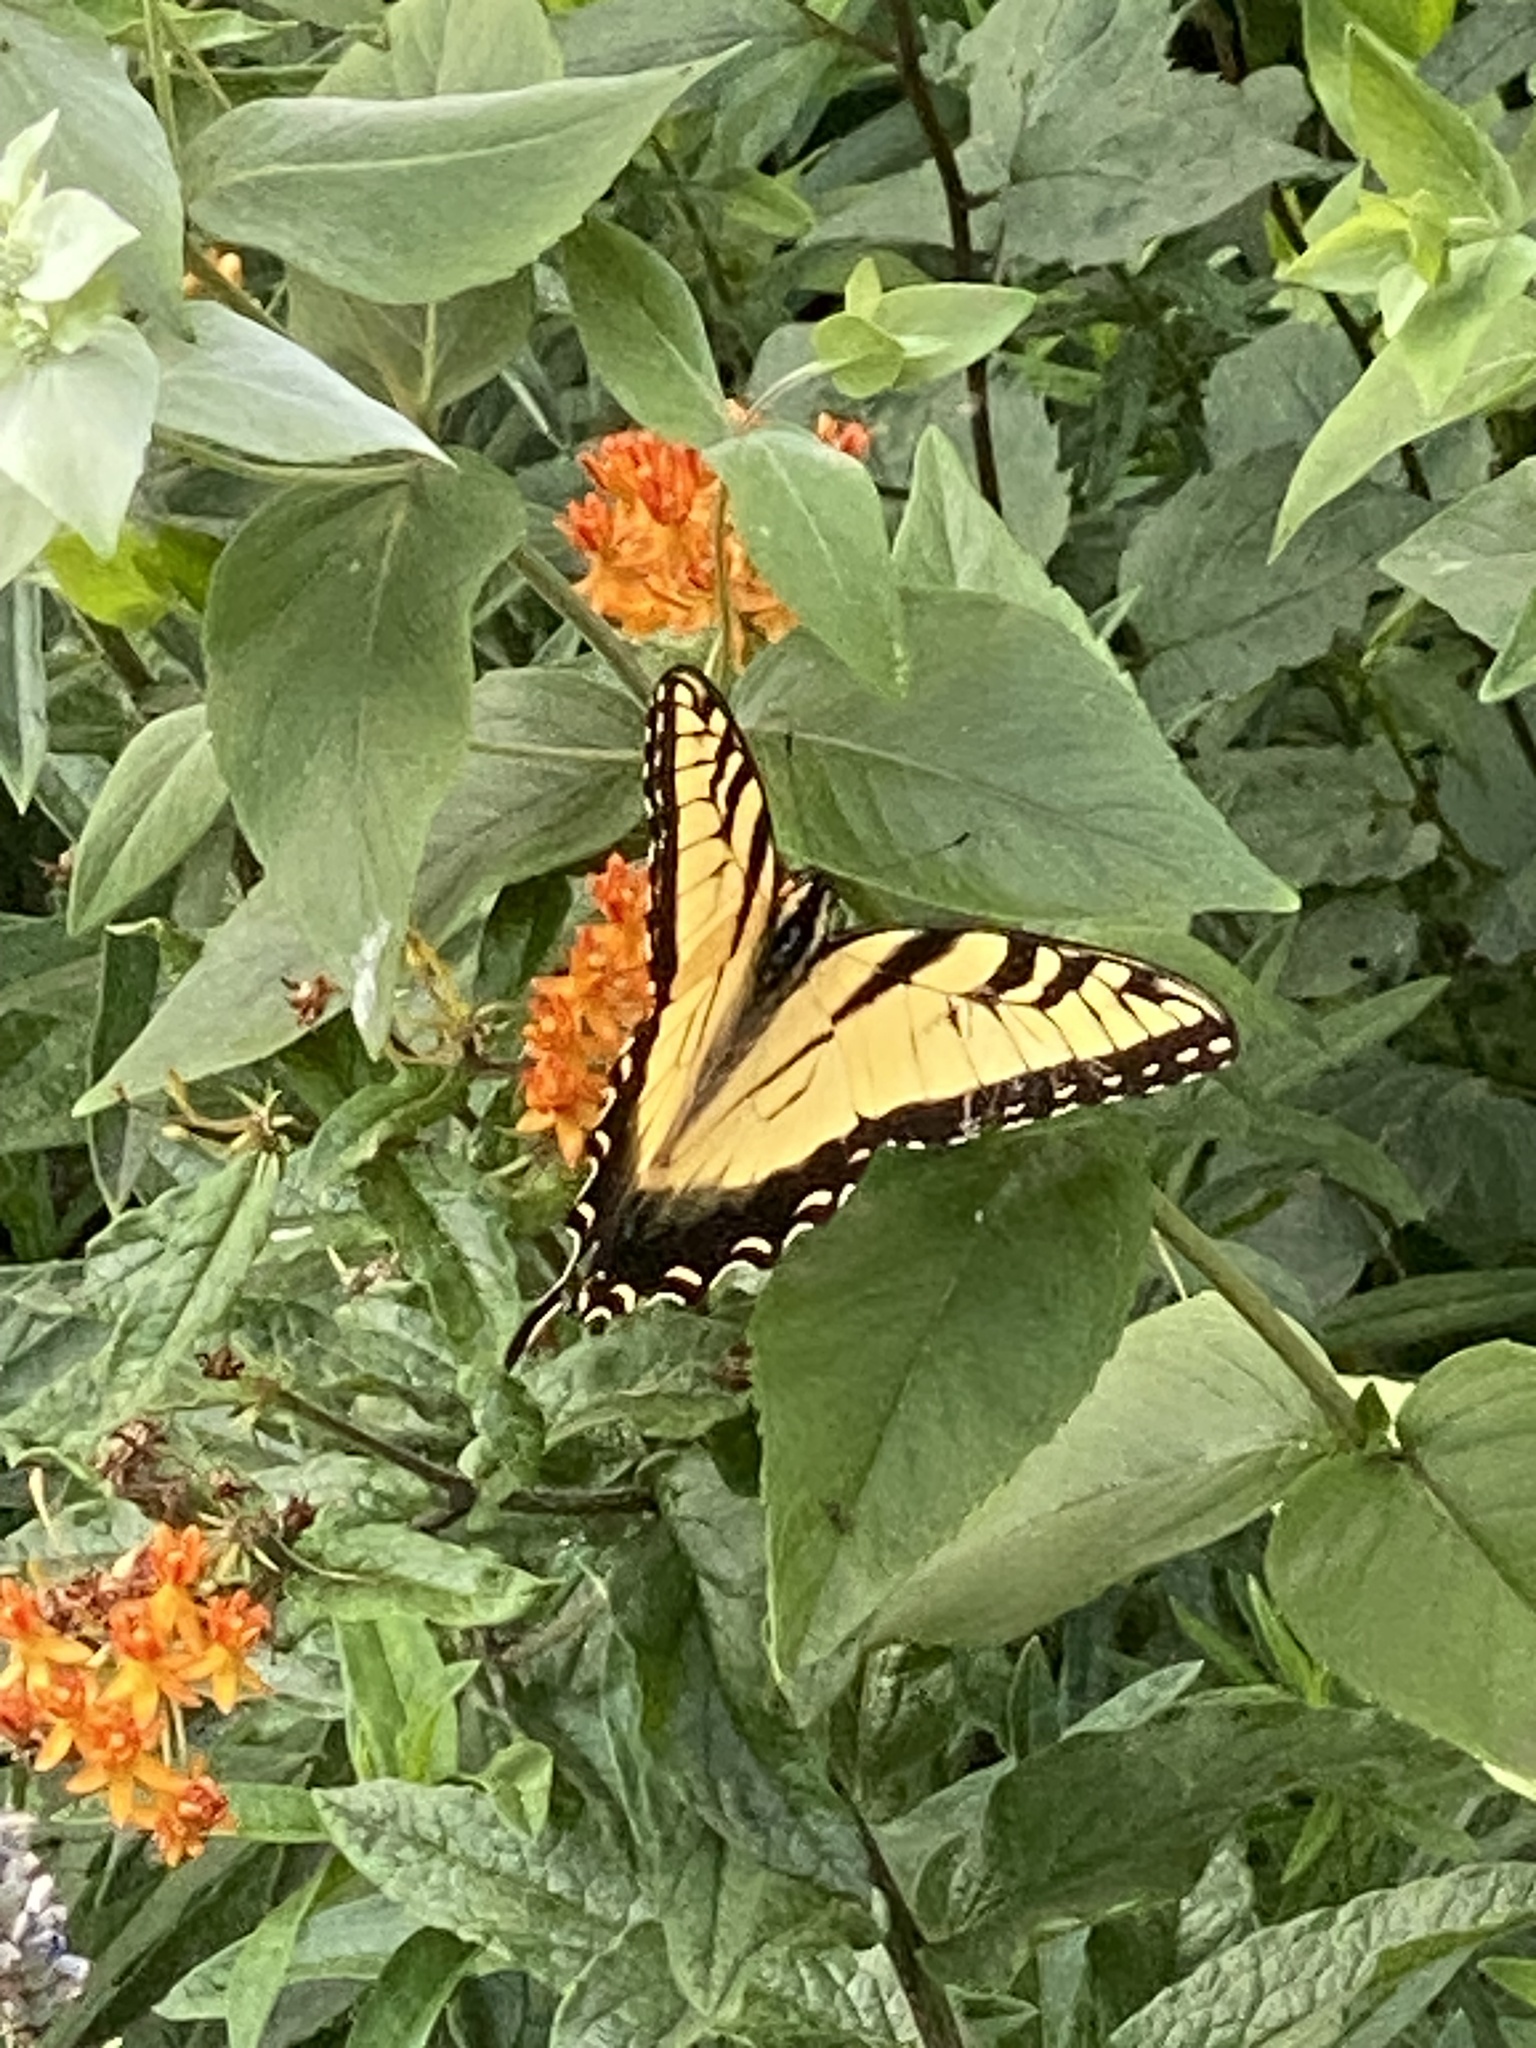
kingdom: Animalia
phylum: Arthropoda
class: Insecta
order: Lepidoptera
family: Papilionidae
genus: Papilio
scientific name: Papilio glaucus
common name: Tiger swallowtail
